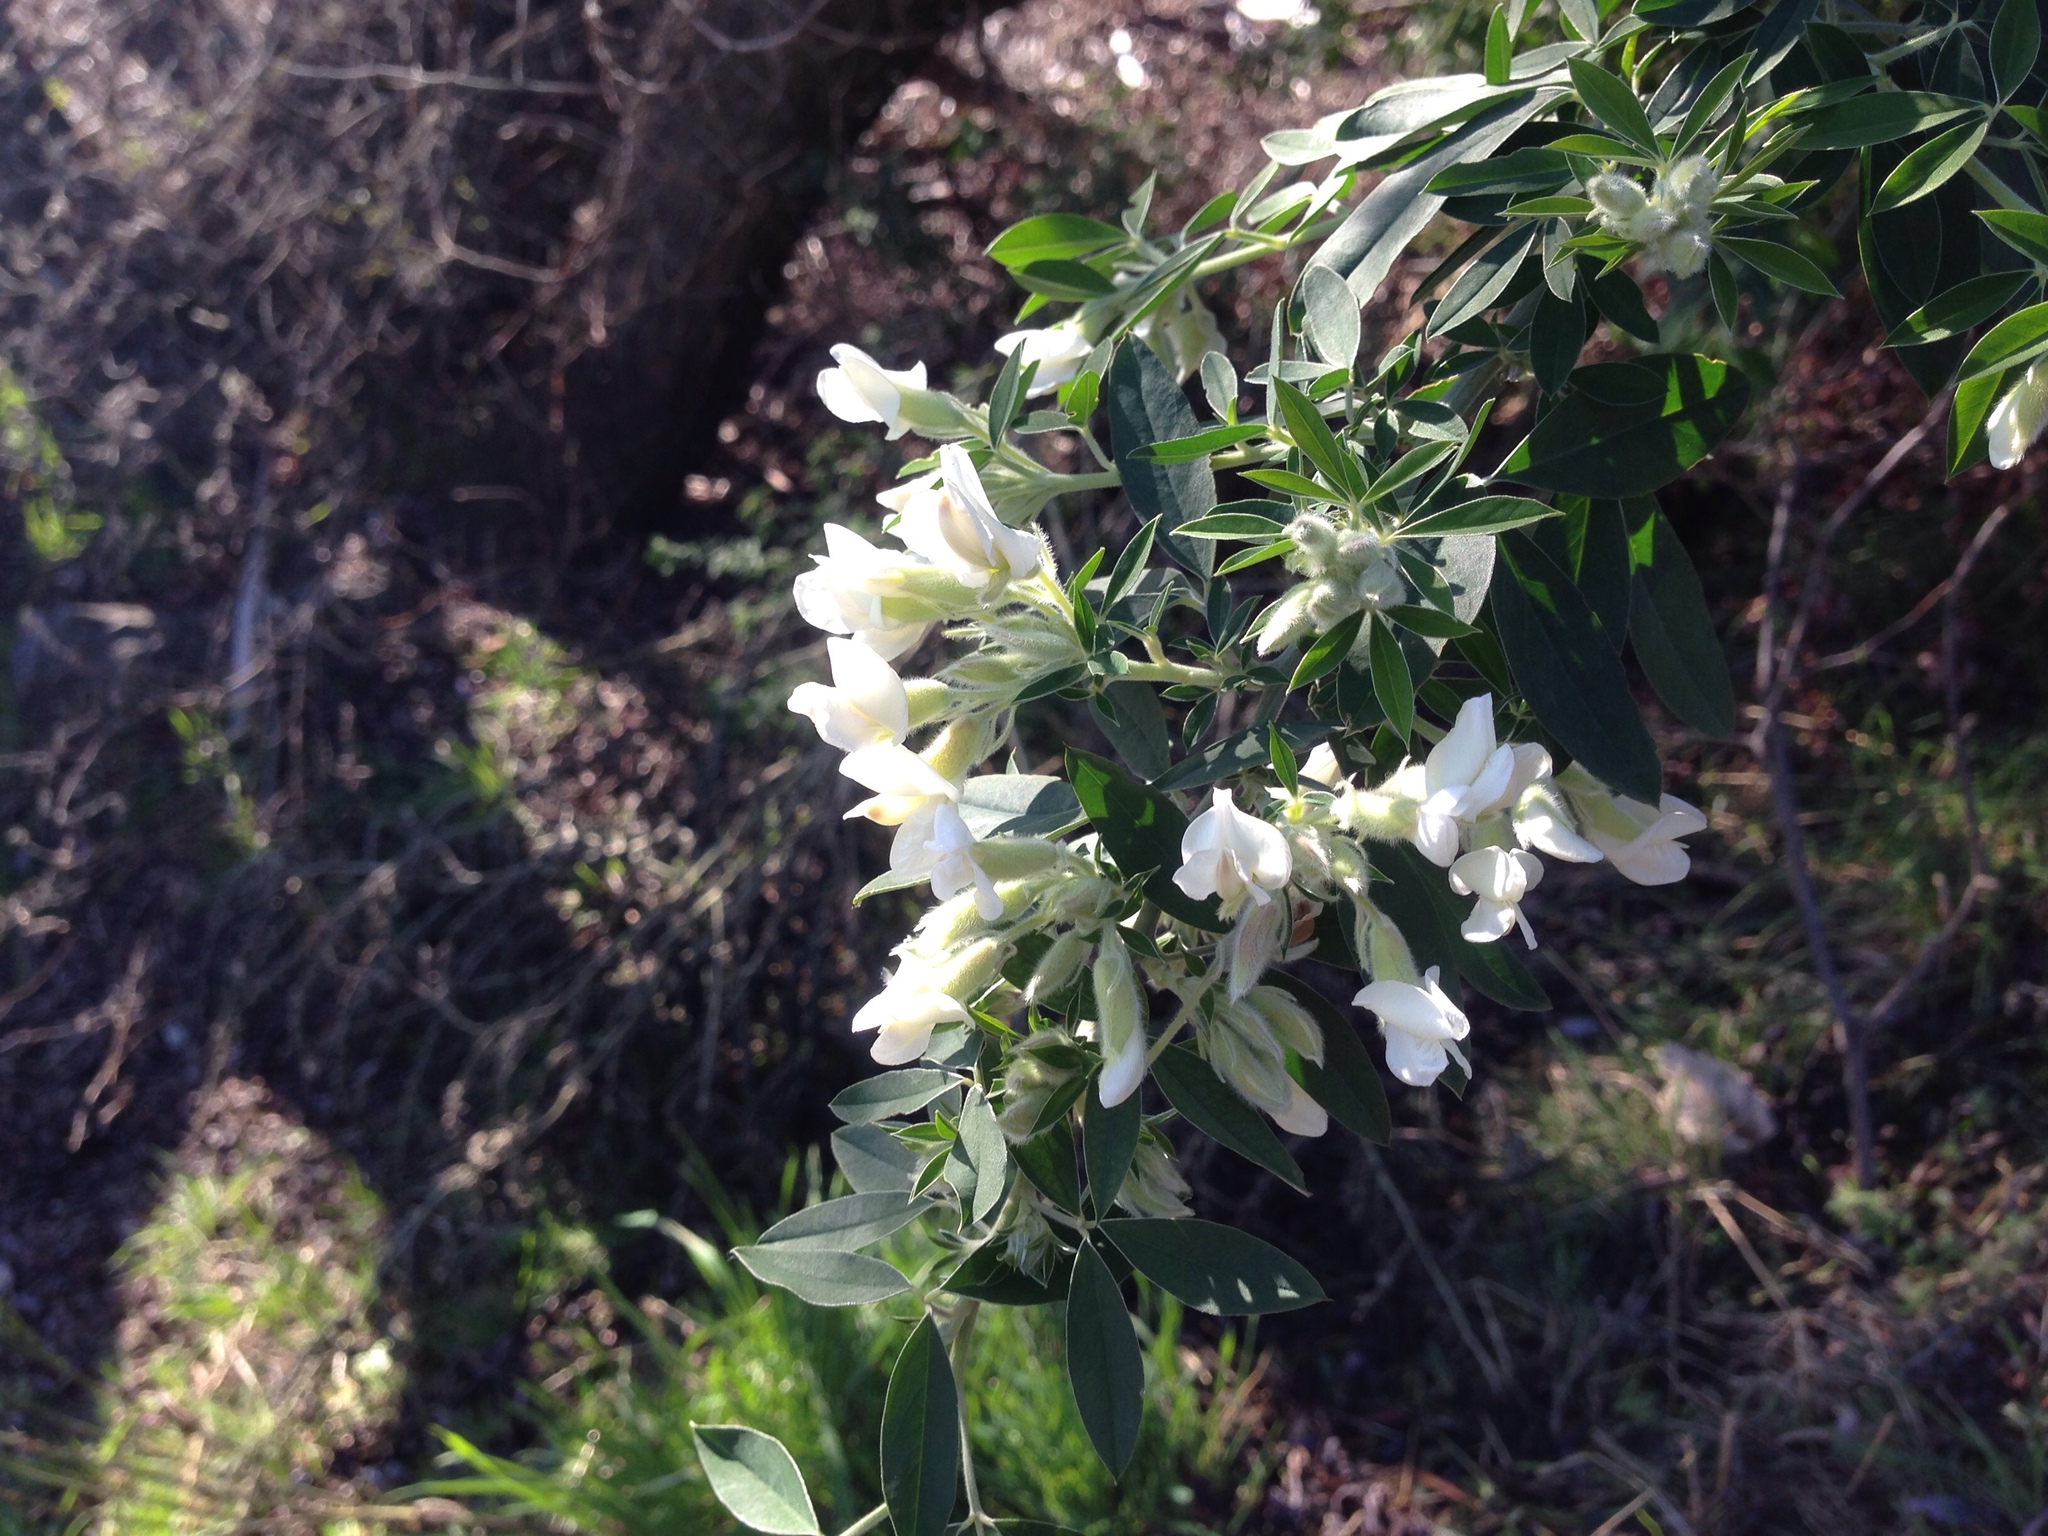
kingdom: Plantae
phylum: Tracheophyta
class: Magnoliopsida
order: Fabales
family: Fabaceae
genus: Chamaecytisus
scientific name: Chamaecytisus prolifer
